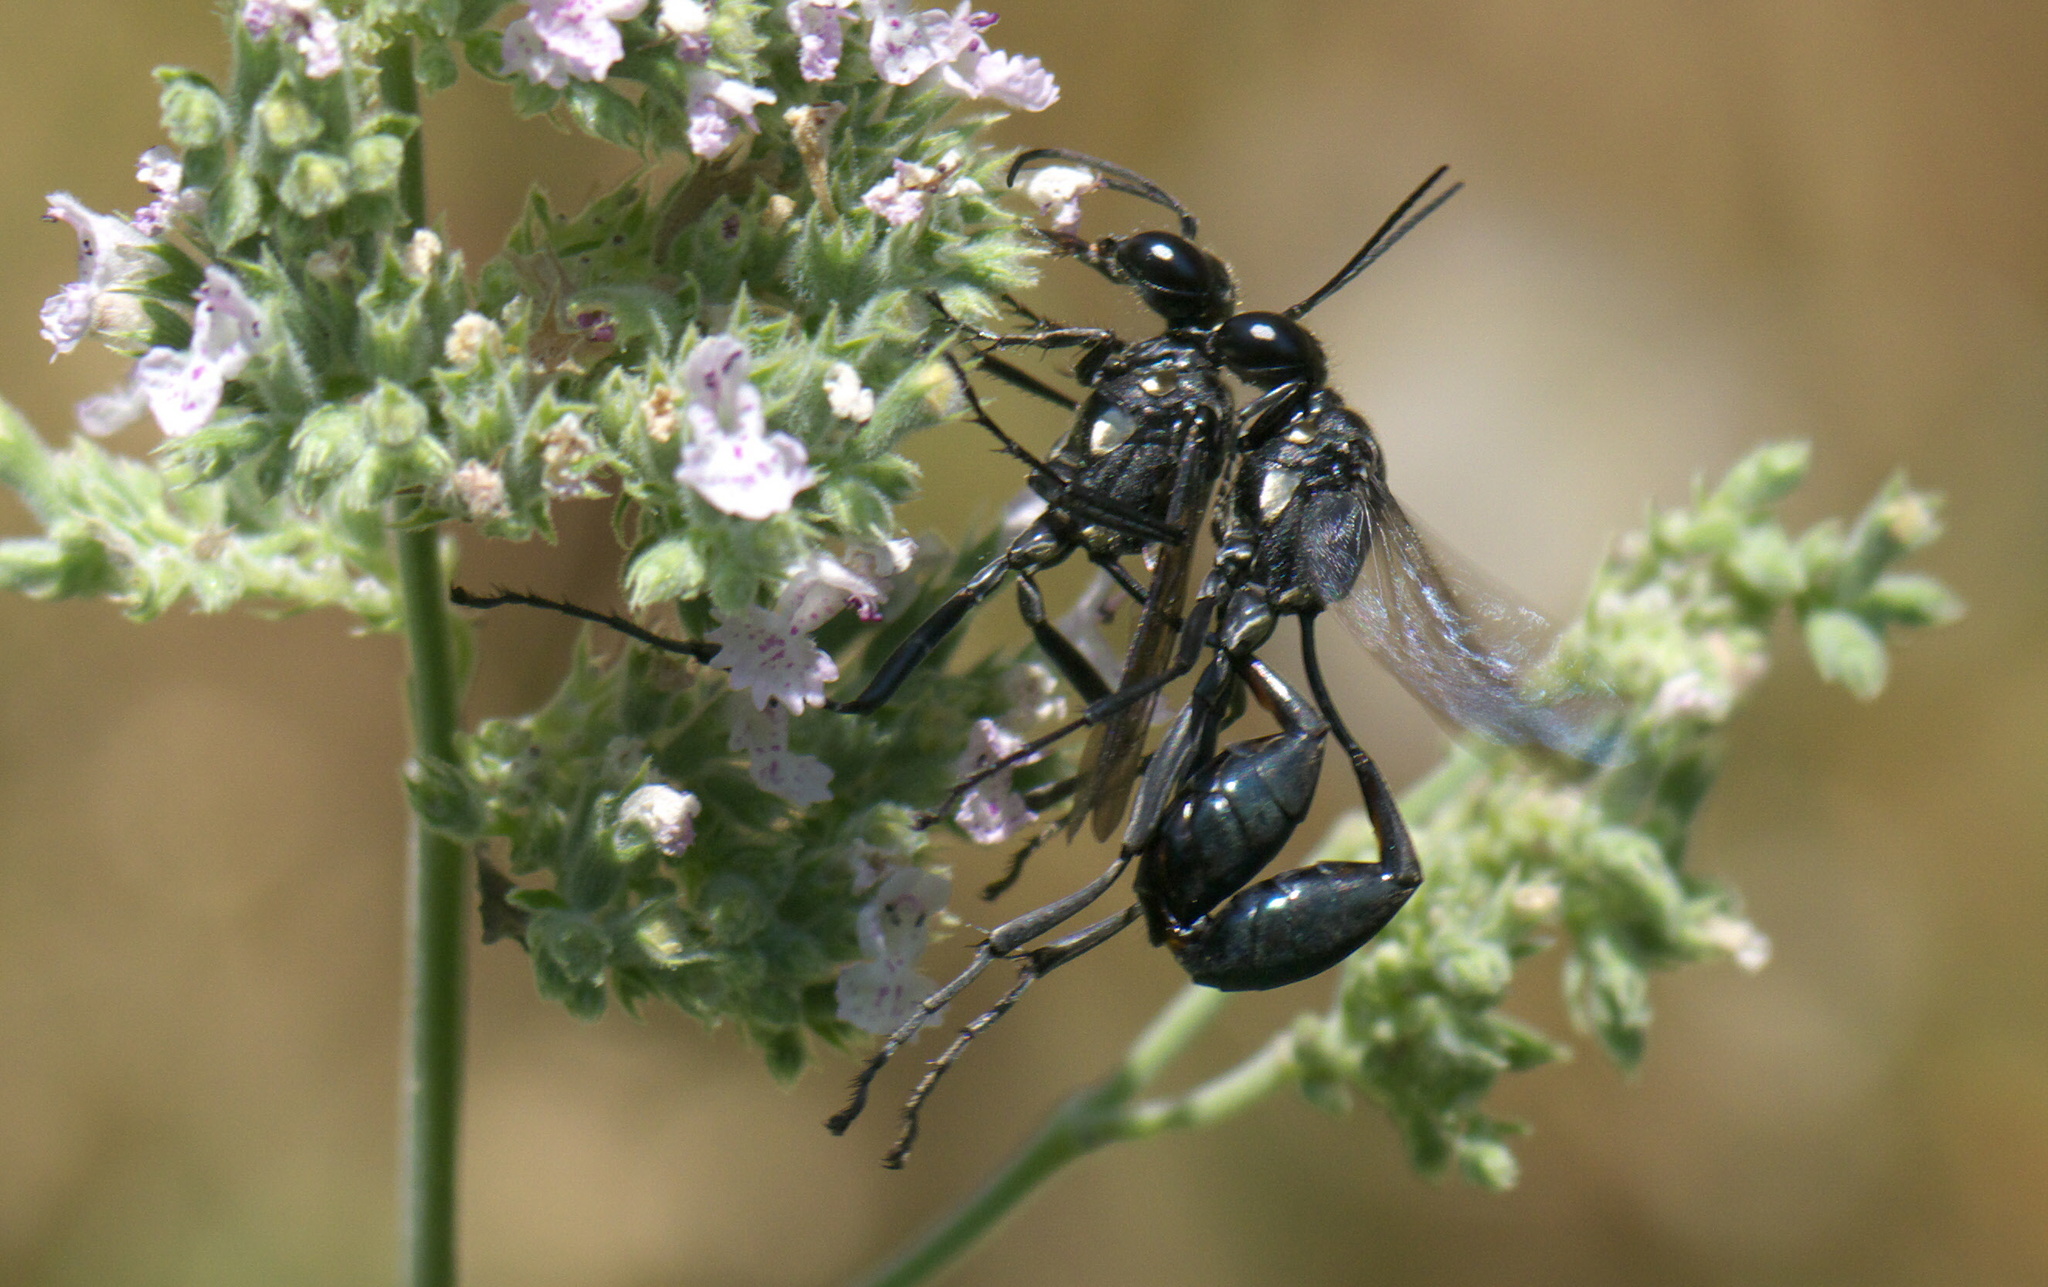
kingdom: Animalia
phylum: Arthropoda
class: Insecta
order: Hymenoptera
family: Sphecidae
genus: Eremnophila
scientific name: Eremnophila aureonotata
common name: Gold-marked thread-waisted wasp
